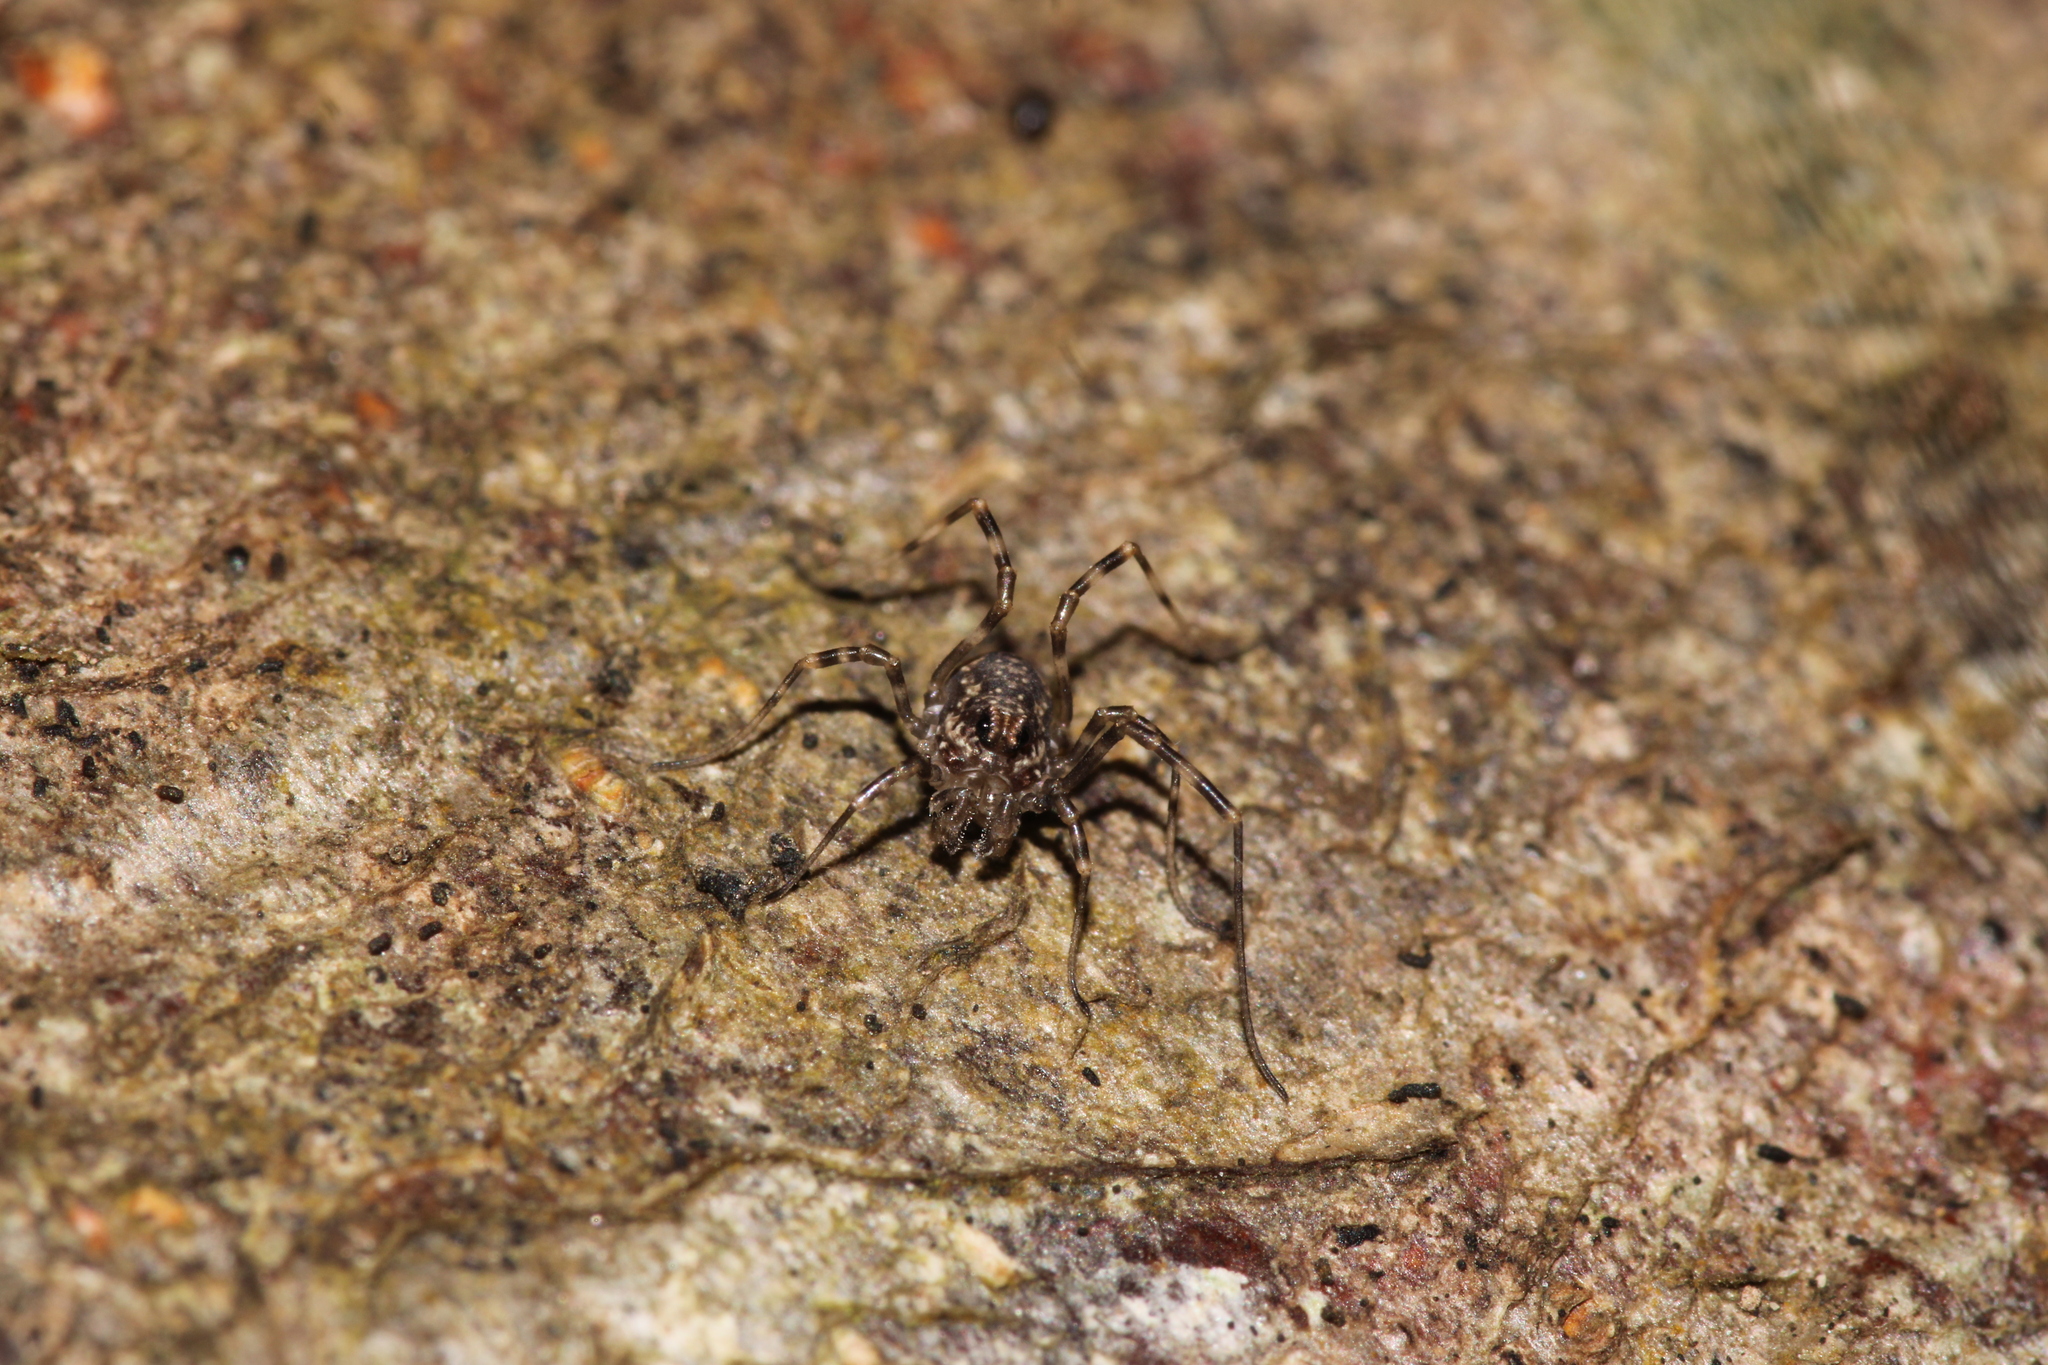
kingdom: Animalia
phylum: Arthropoda
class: Arachnida
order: Opiliones
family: Phalangiidae
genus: Rilaena
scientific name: Rilaena triangularis
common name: Spring harvestman
